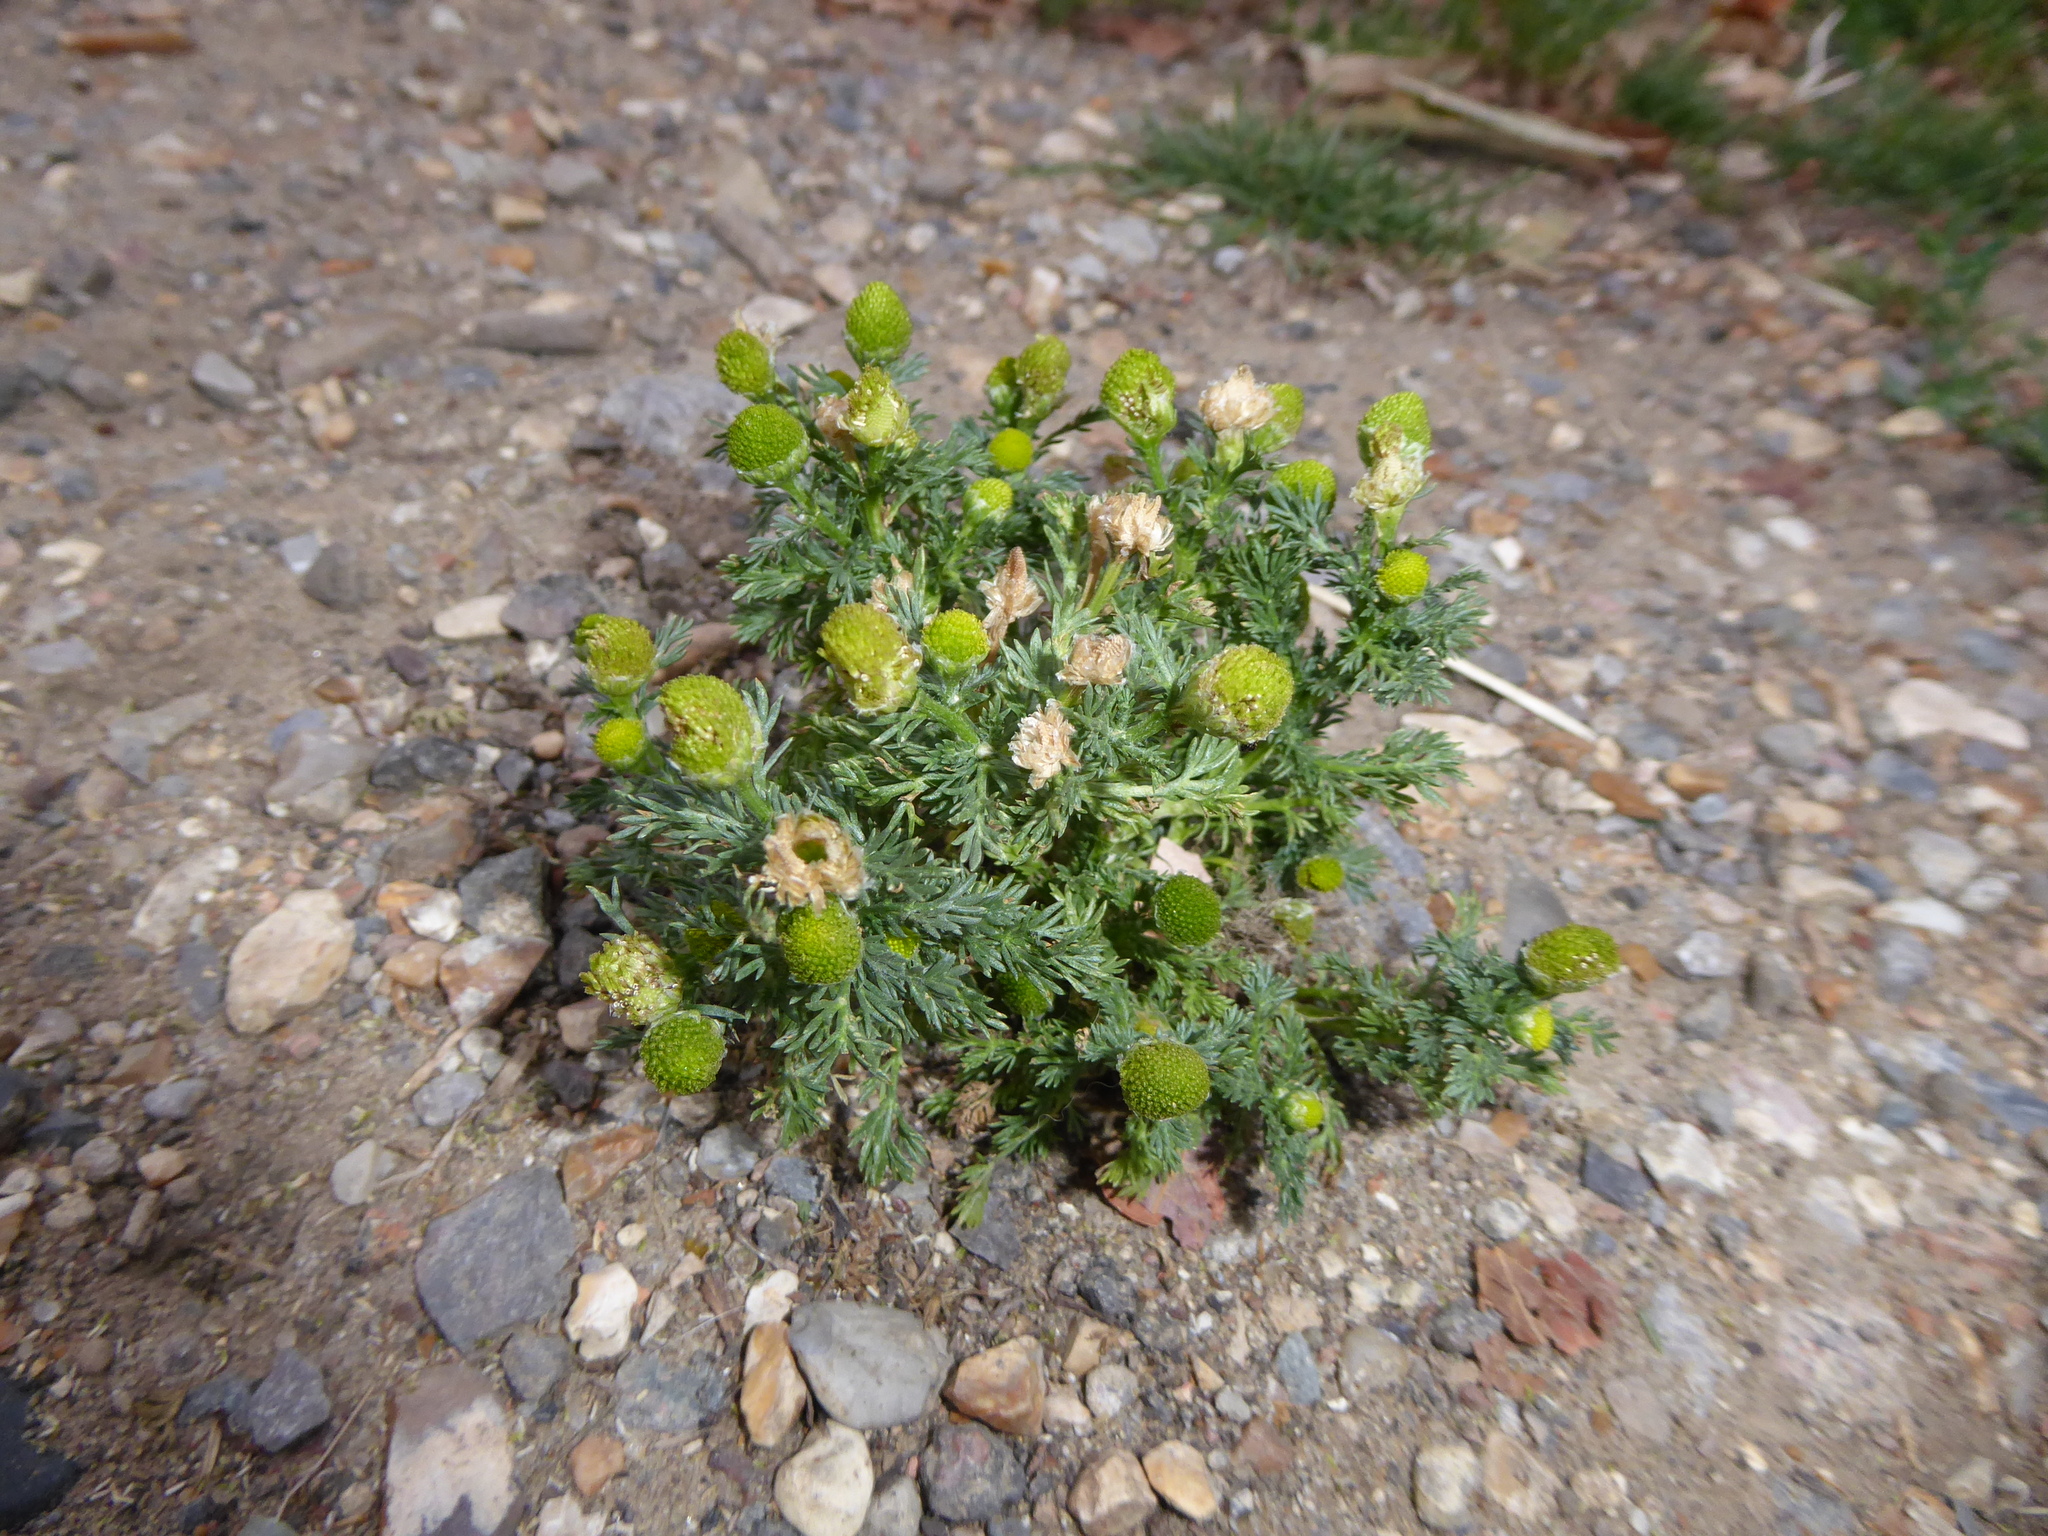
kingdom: Plantae
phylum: Tracheophyta
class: Magnoliopsida
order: Asterales
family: Asteraceae
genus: Matricaria
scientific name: Matricaria discoidea
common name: Disc mayweed
